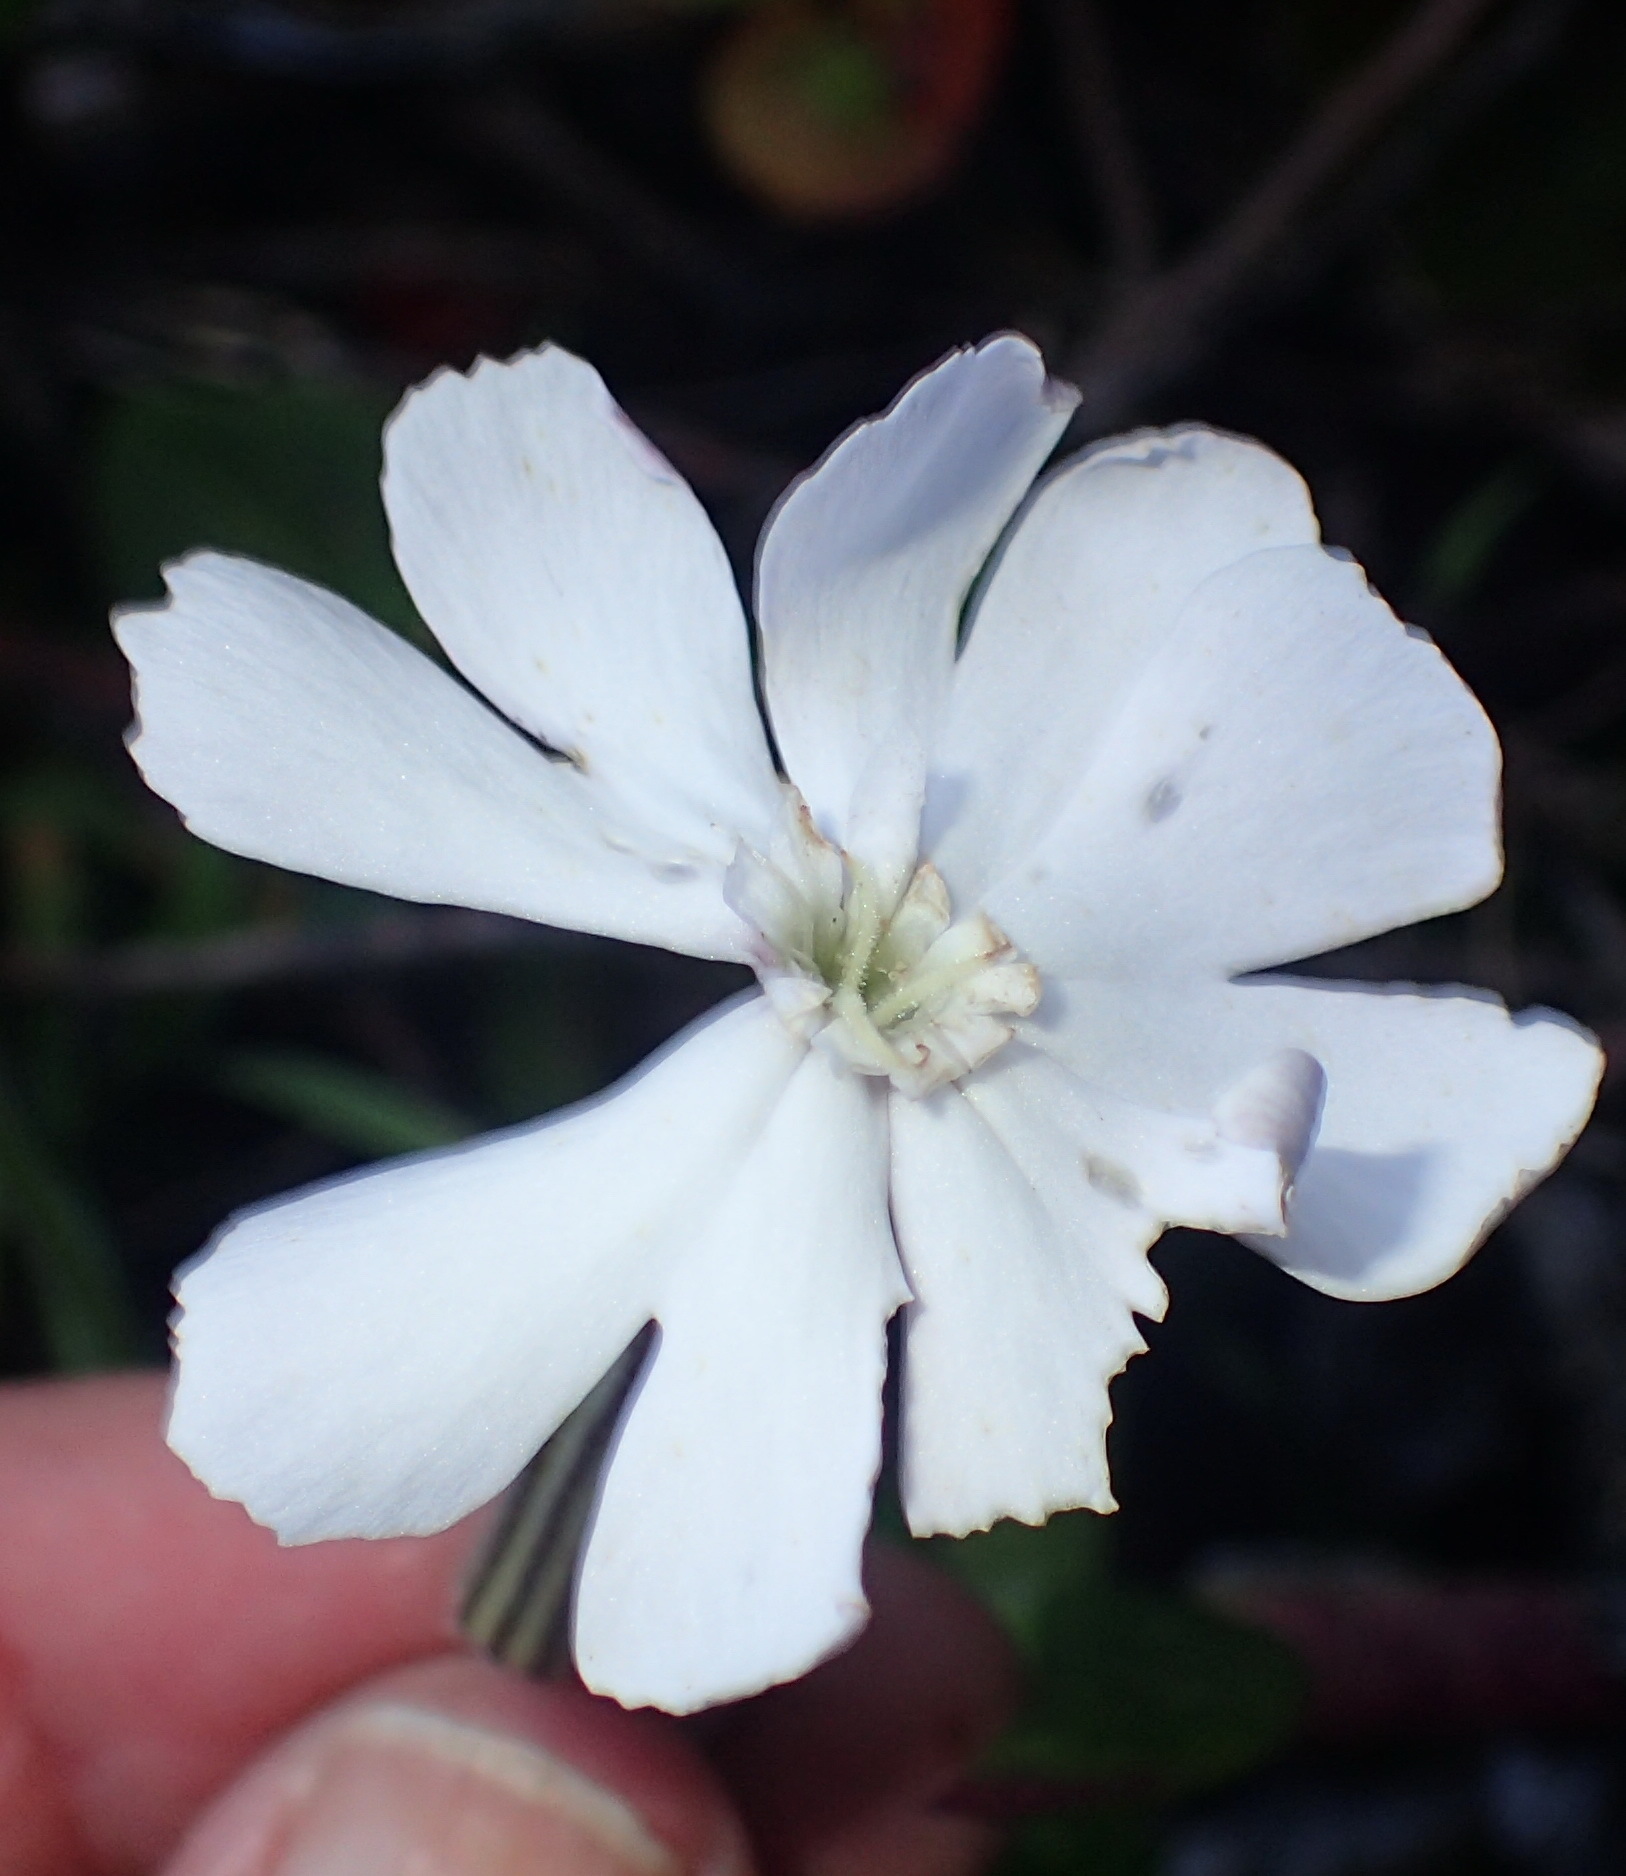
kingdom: Plantae
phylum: Tracheophyta
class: Magnoliopsida
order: Caryophyllales
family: Caryophyllaceae
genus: Silene
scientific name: Silene undulata
